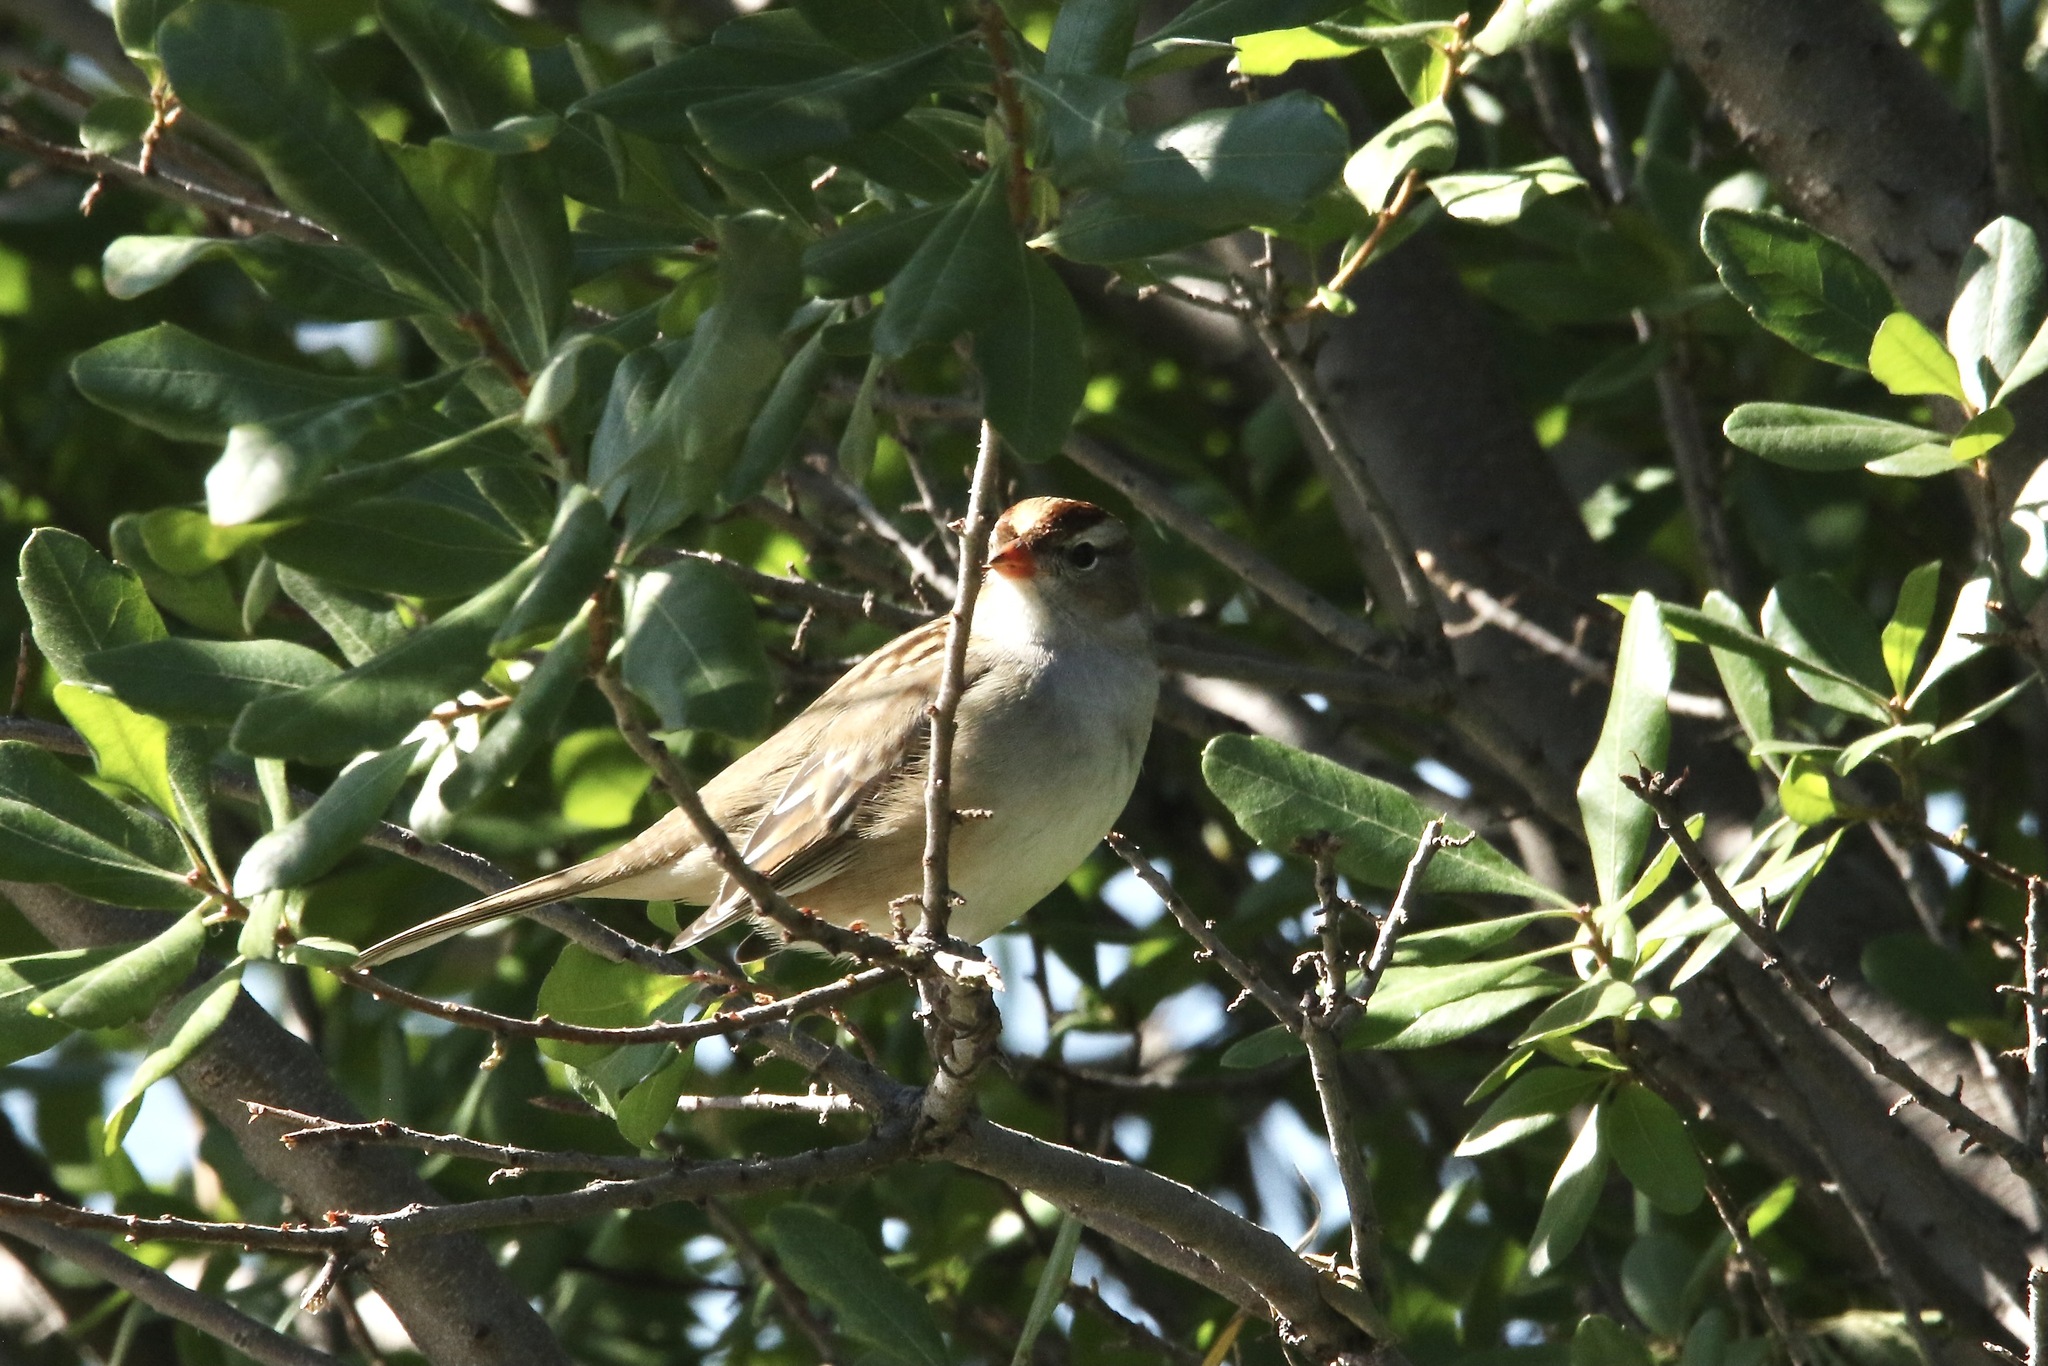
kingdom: Animalia
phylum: Chordata
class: Aves
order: Passeriformes
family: Passerellidae
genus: Zonotrichia
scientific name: Zonotrichia leucophrys
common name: White-crowned sparrow
